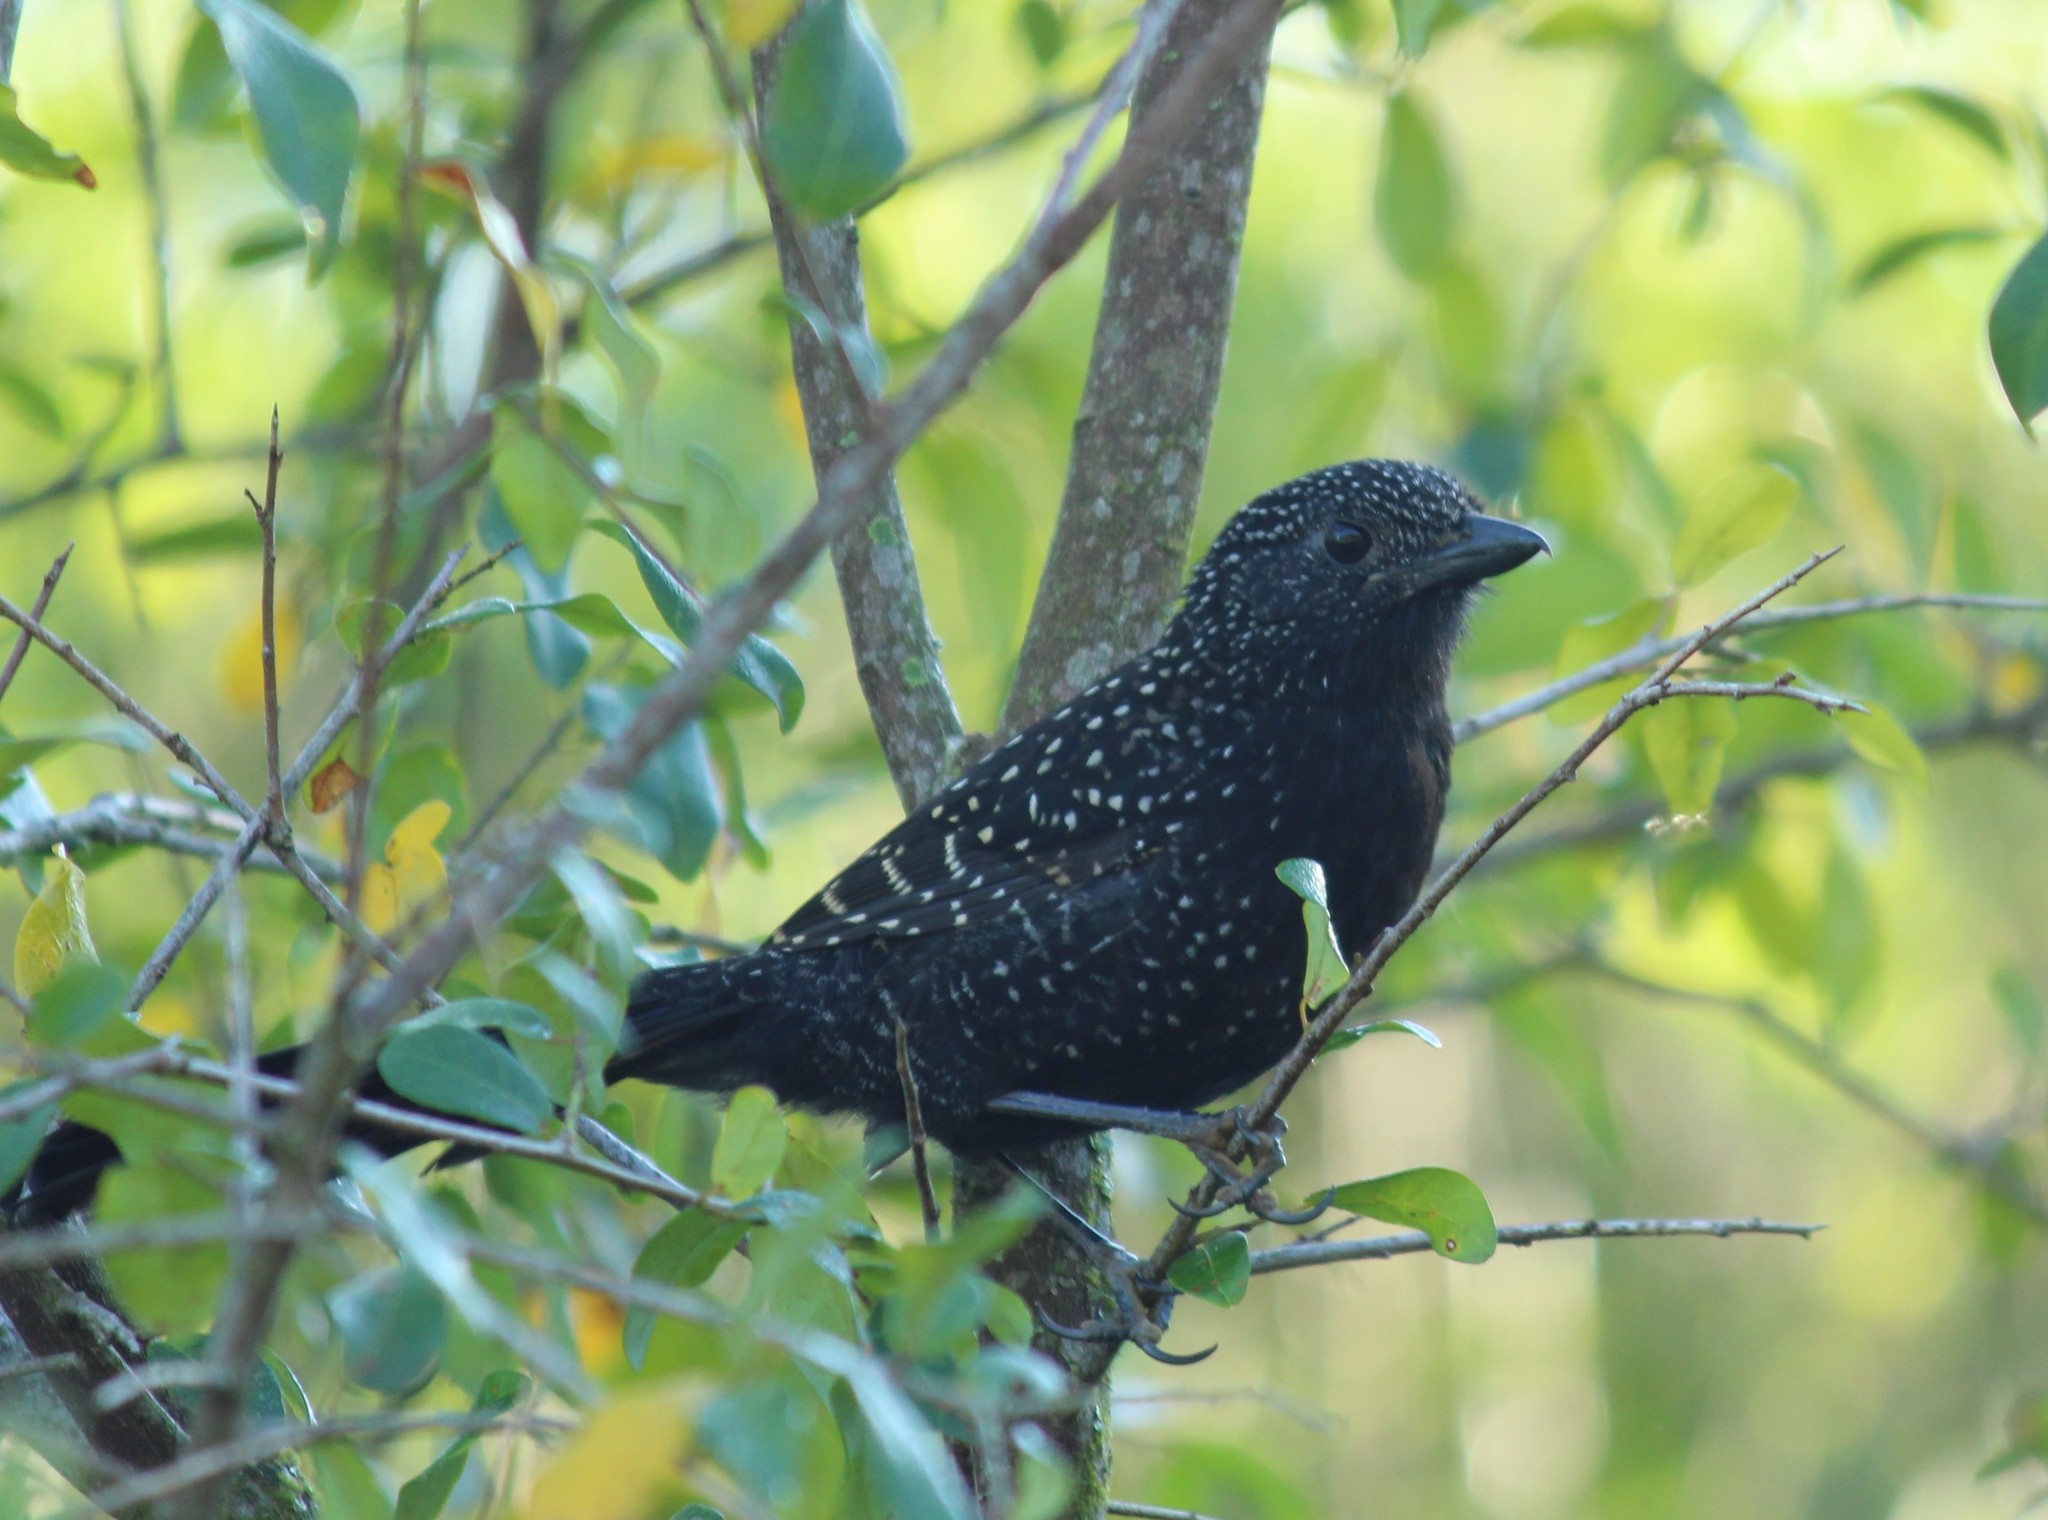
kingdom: Animalia
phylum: Chordata
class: Aves
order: Passeriformes
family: Thamnophilidae
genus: Mackenziaena
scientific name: Mackenziaena leachii
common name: Large-tailed antshrike
